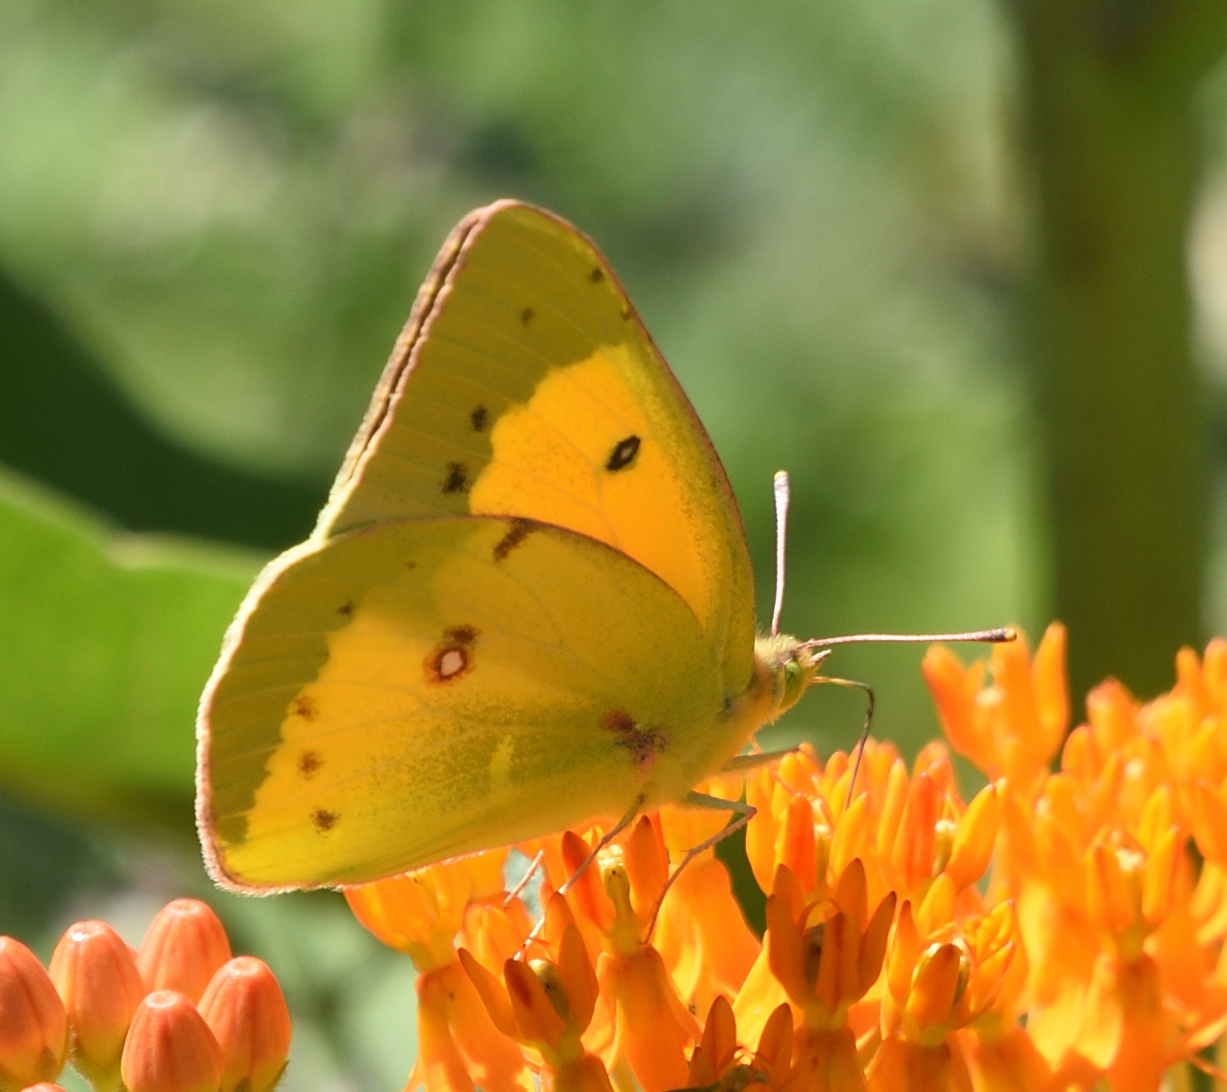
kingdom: Animalia
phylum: Arthropoda
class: Insecta
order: Lepidoptera
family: Pieridae
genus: Colias
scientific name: Colias eurytheme
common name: Alfalfa butterfly
